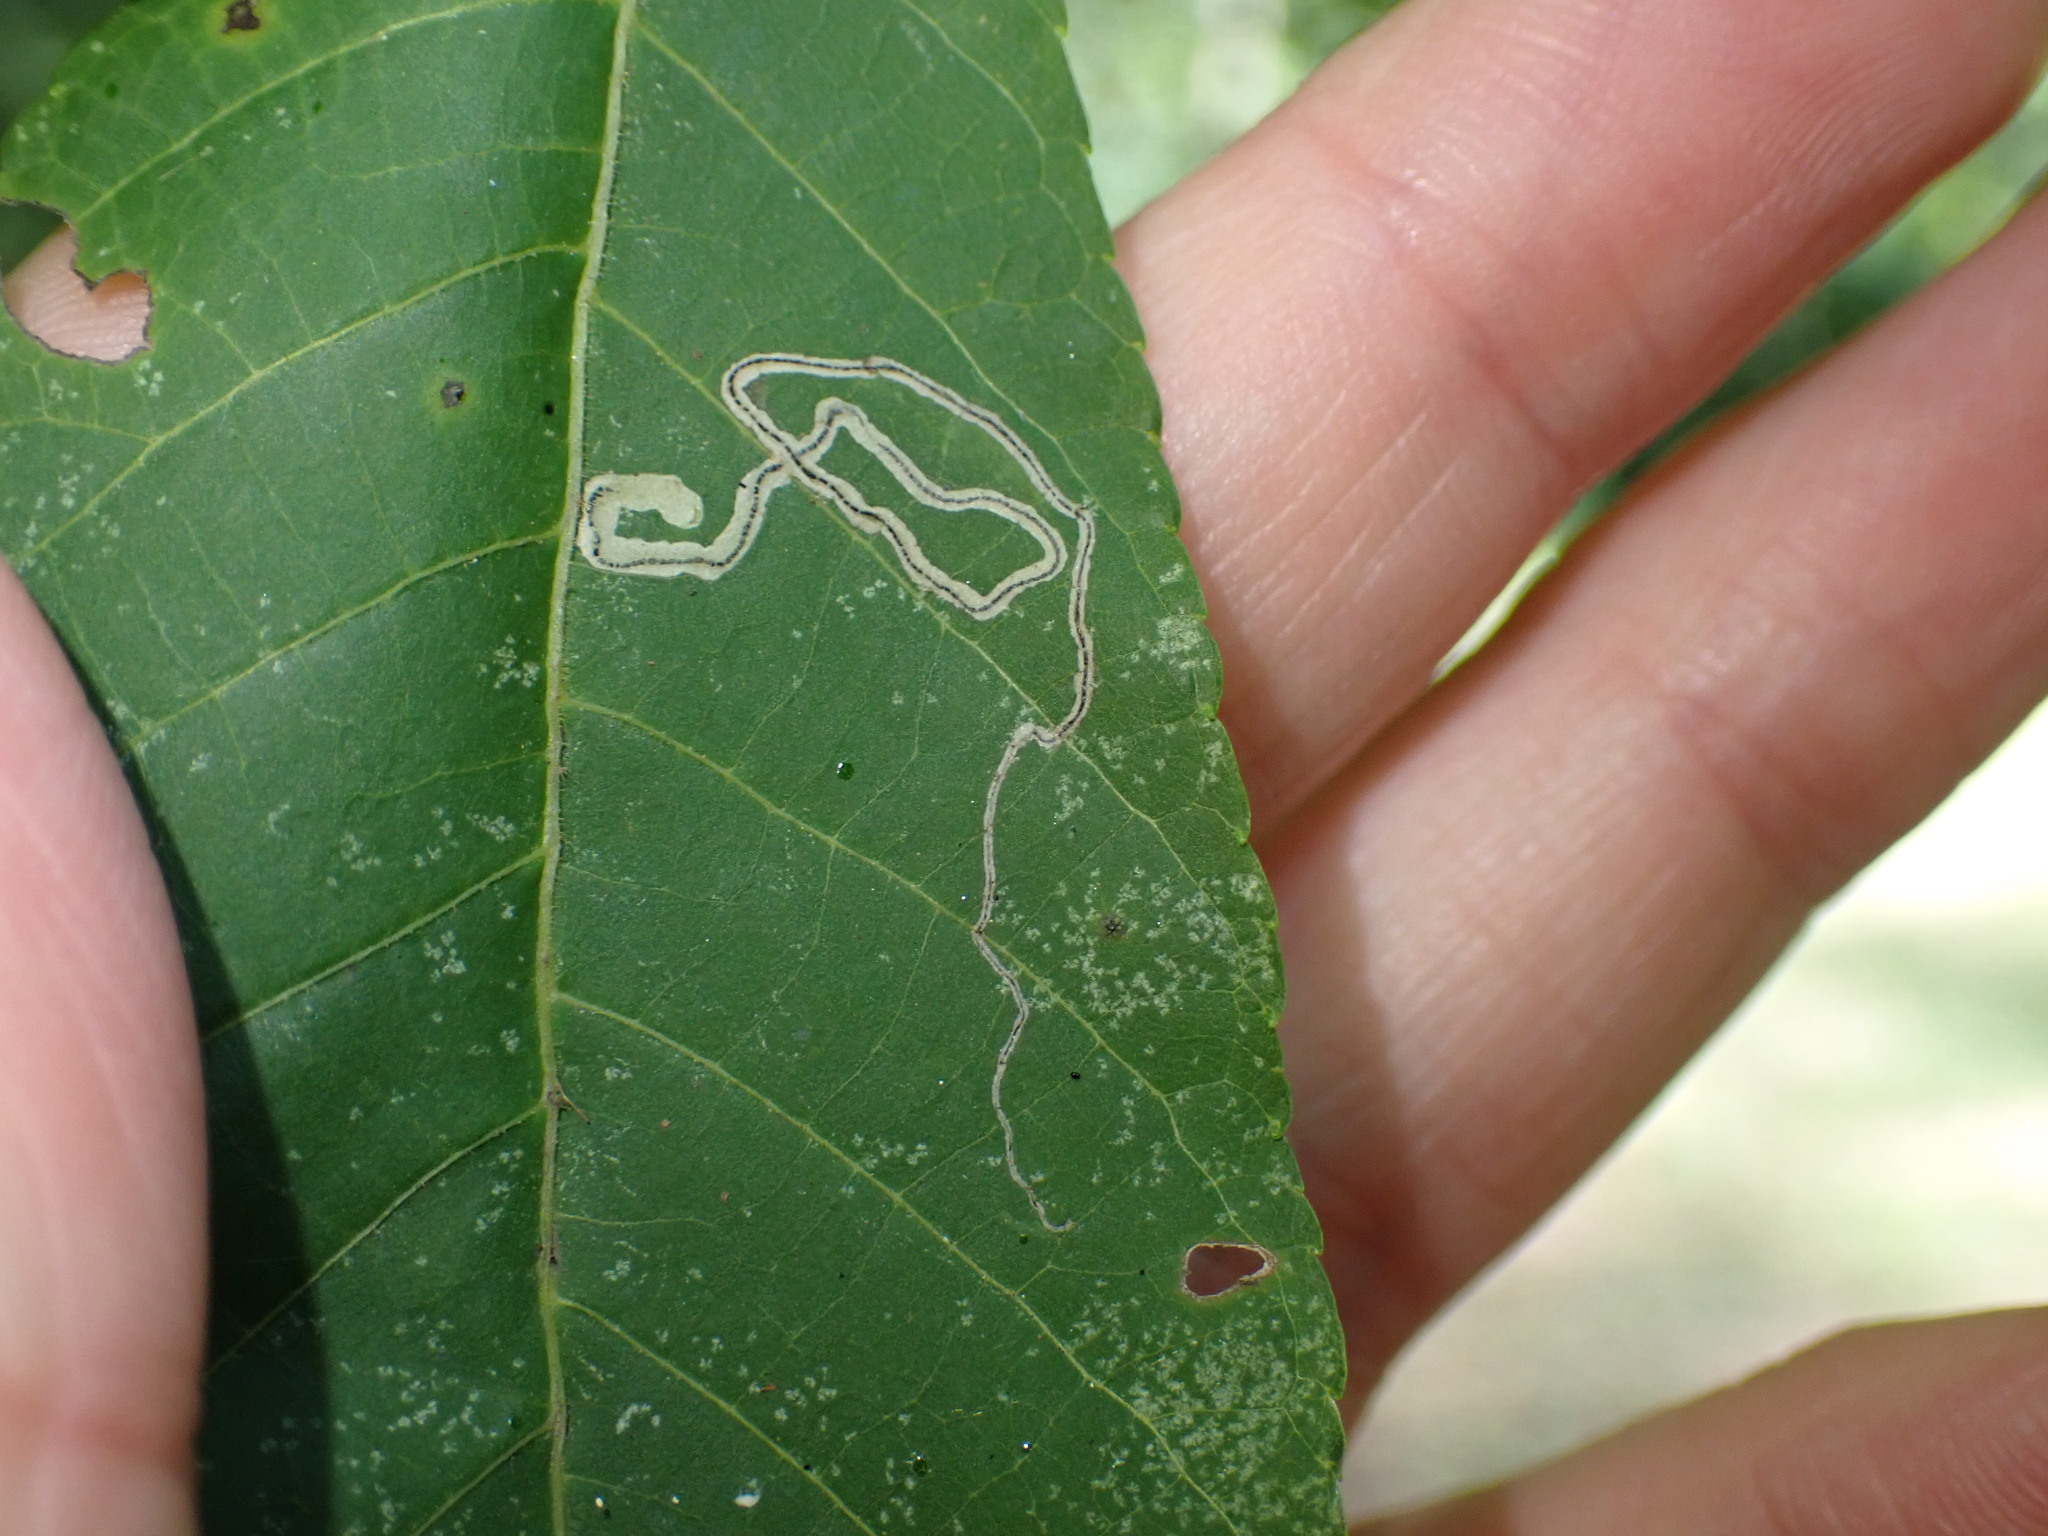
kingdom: Animalia
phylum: Arthropoda
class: Insecta
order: Lepidoptera
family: Nepticulidae
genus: Stigmella
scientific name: Stigmella caryaefoliella
